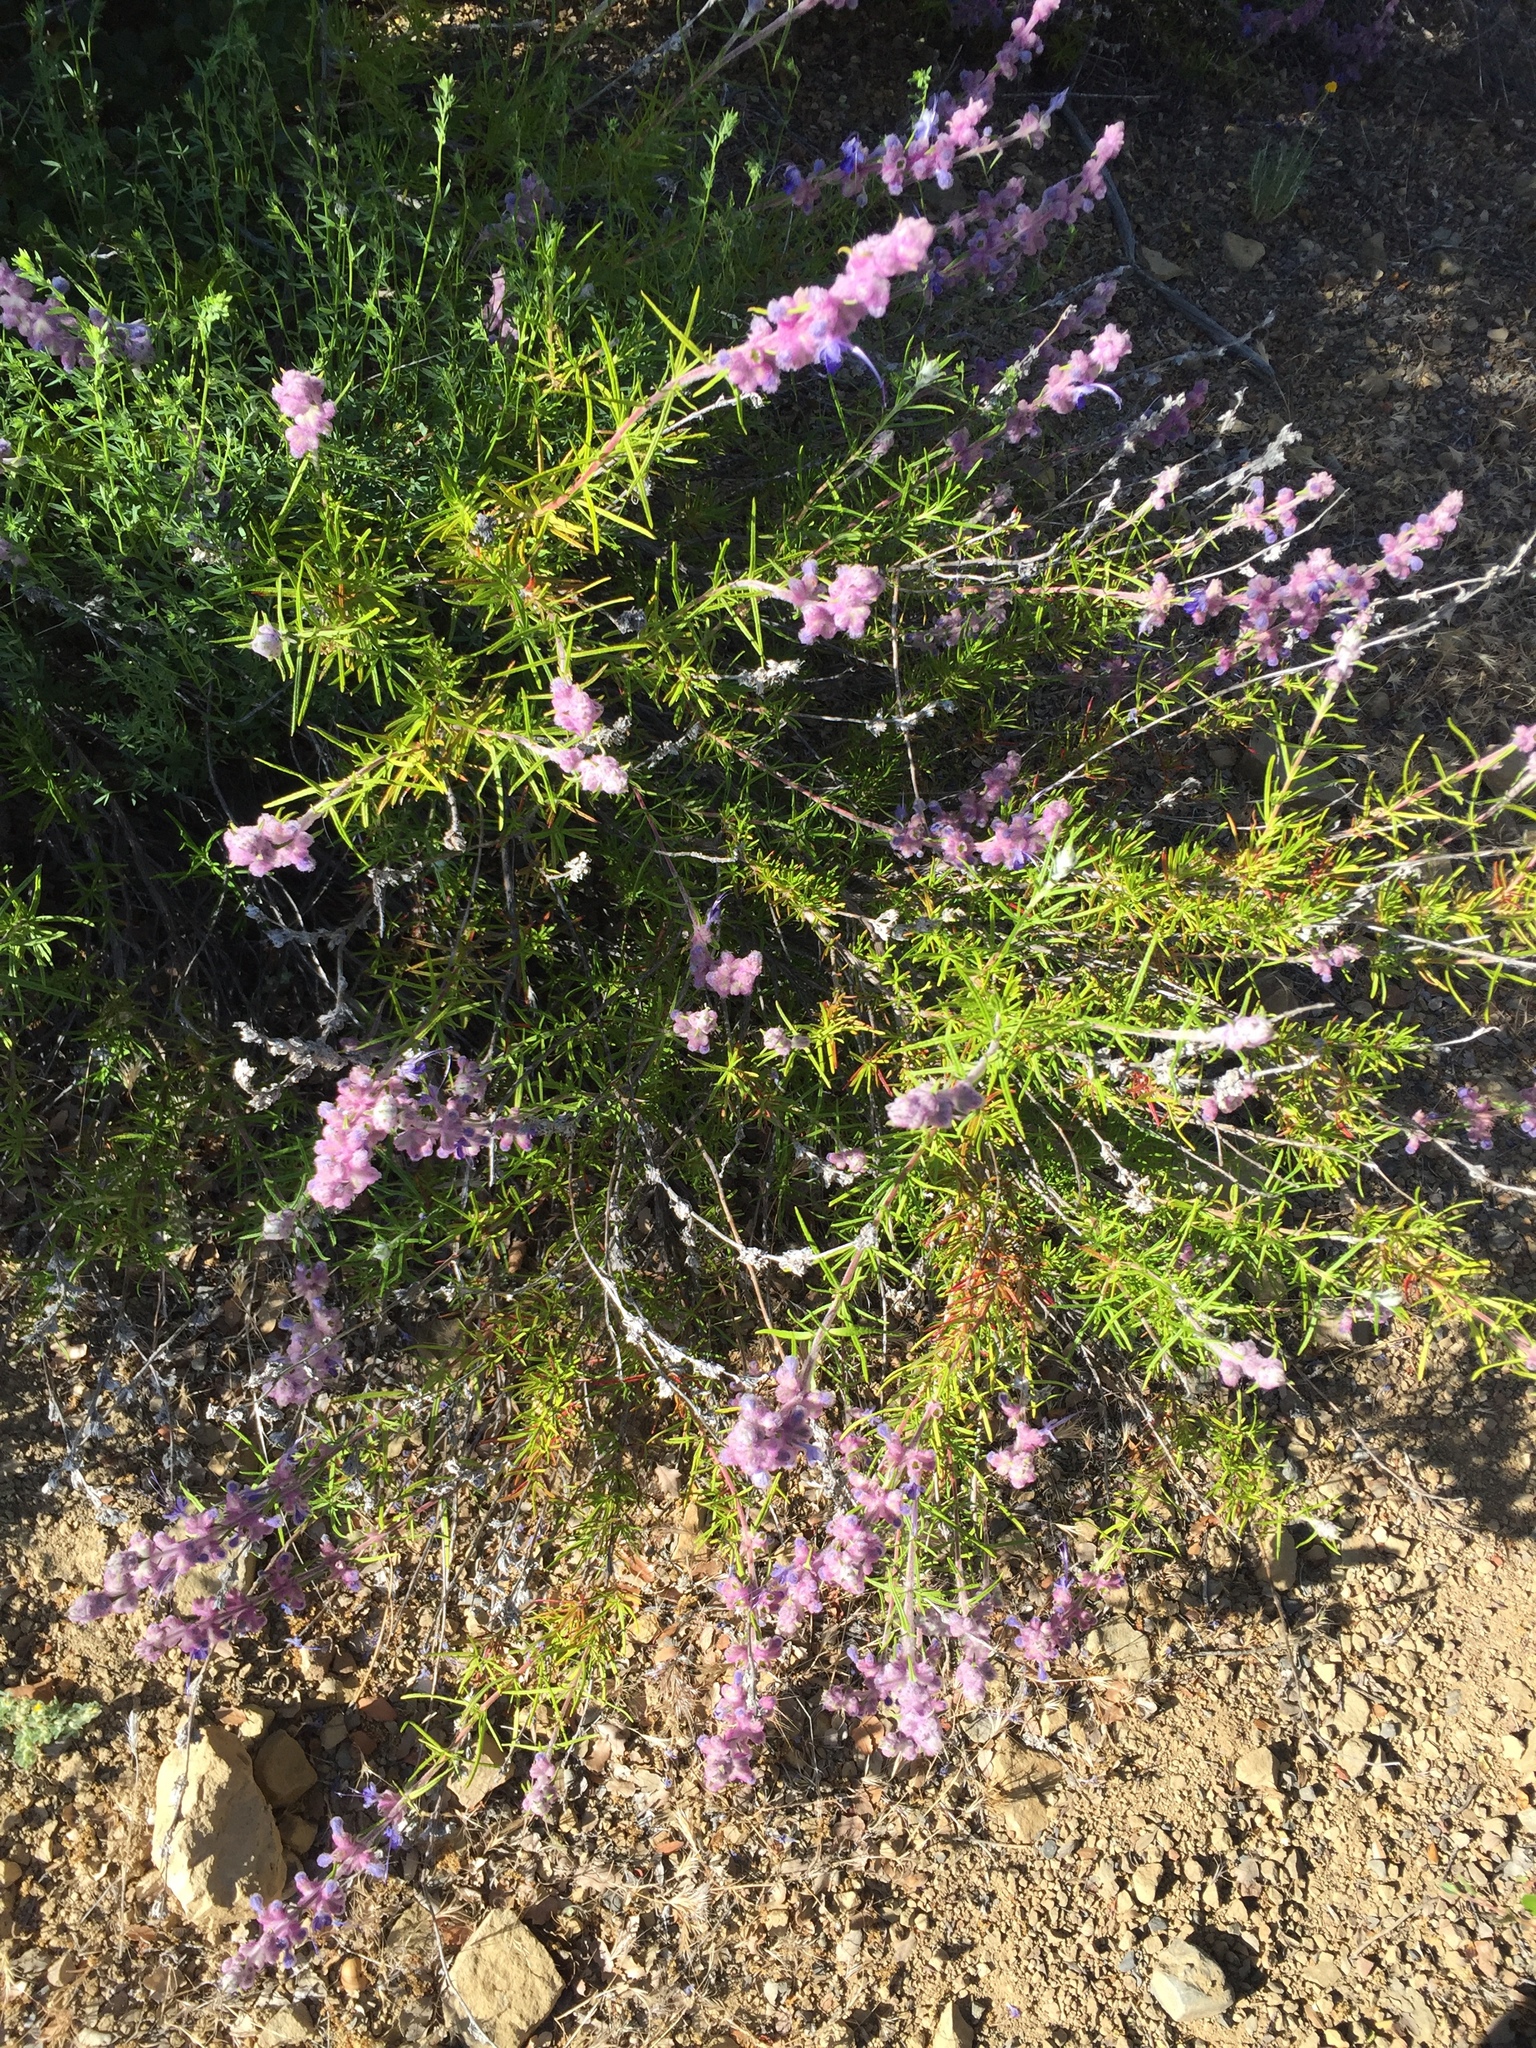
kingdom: Plantae
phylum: Tracheophyta
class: Magnoliopsida
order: Lamiales
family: Lamiaceae
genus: Trichostema
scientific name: Trichostema lanatum
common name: Woolly bluecurls
